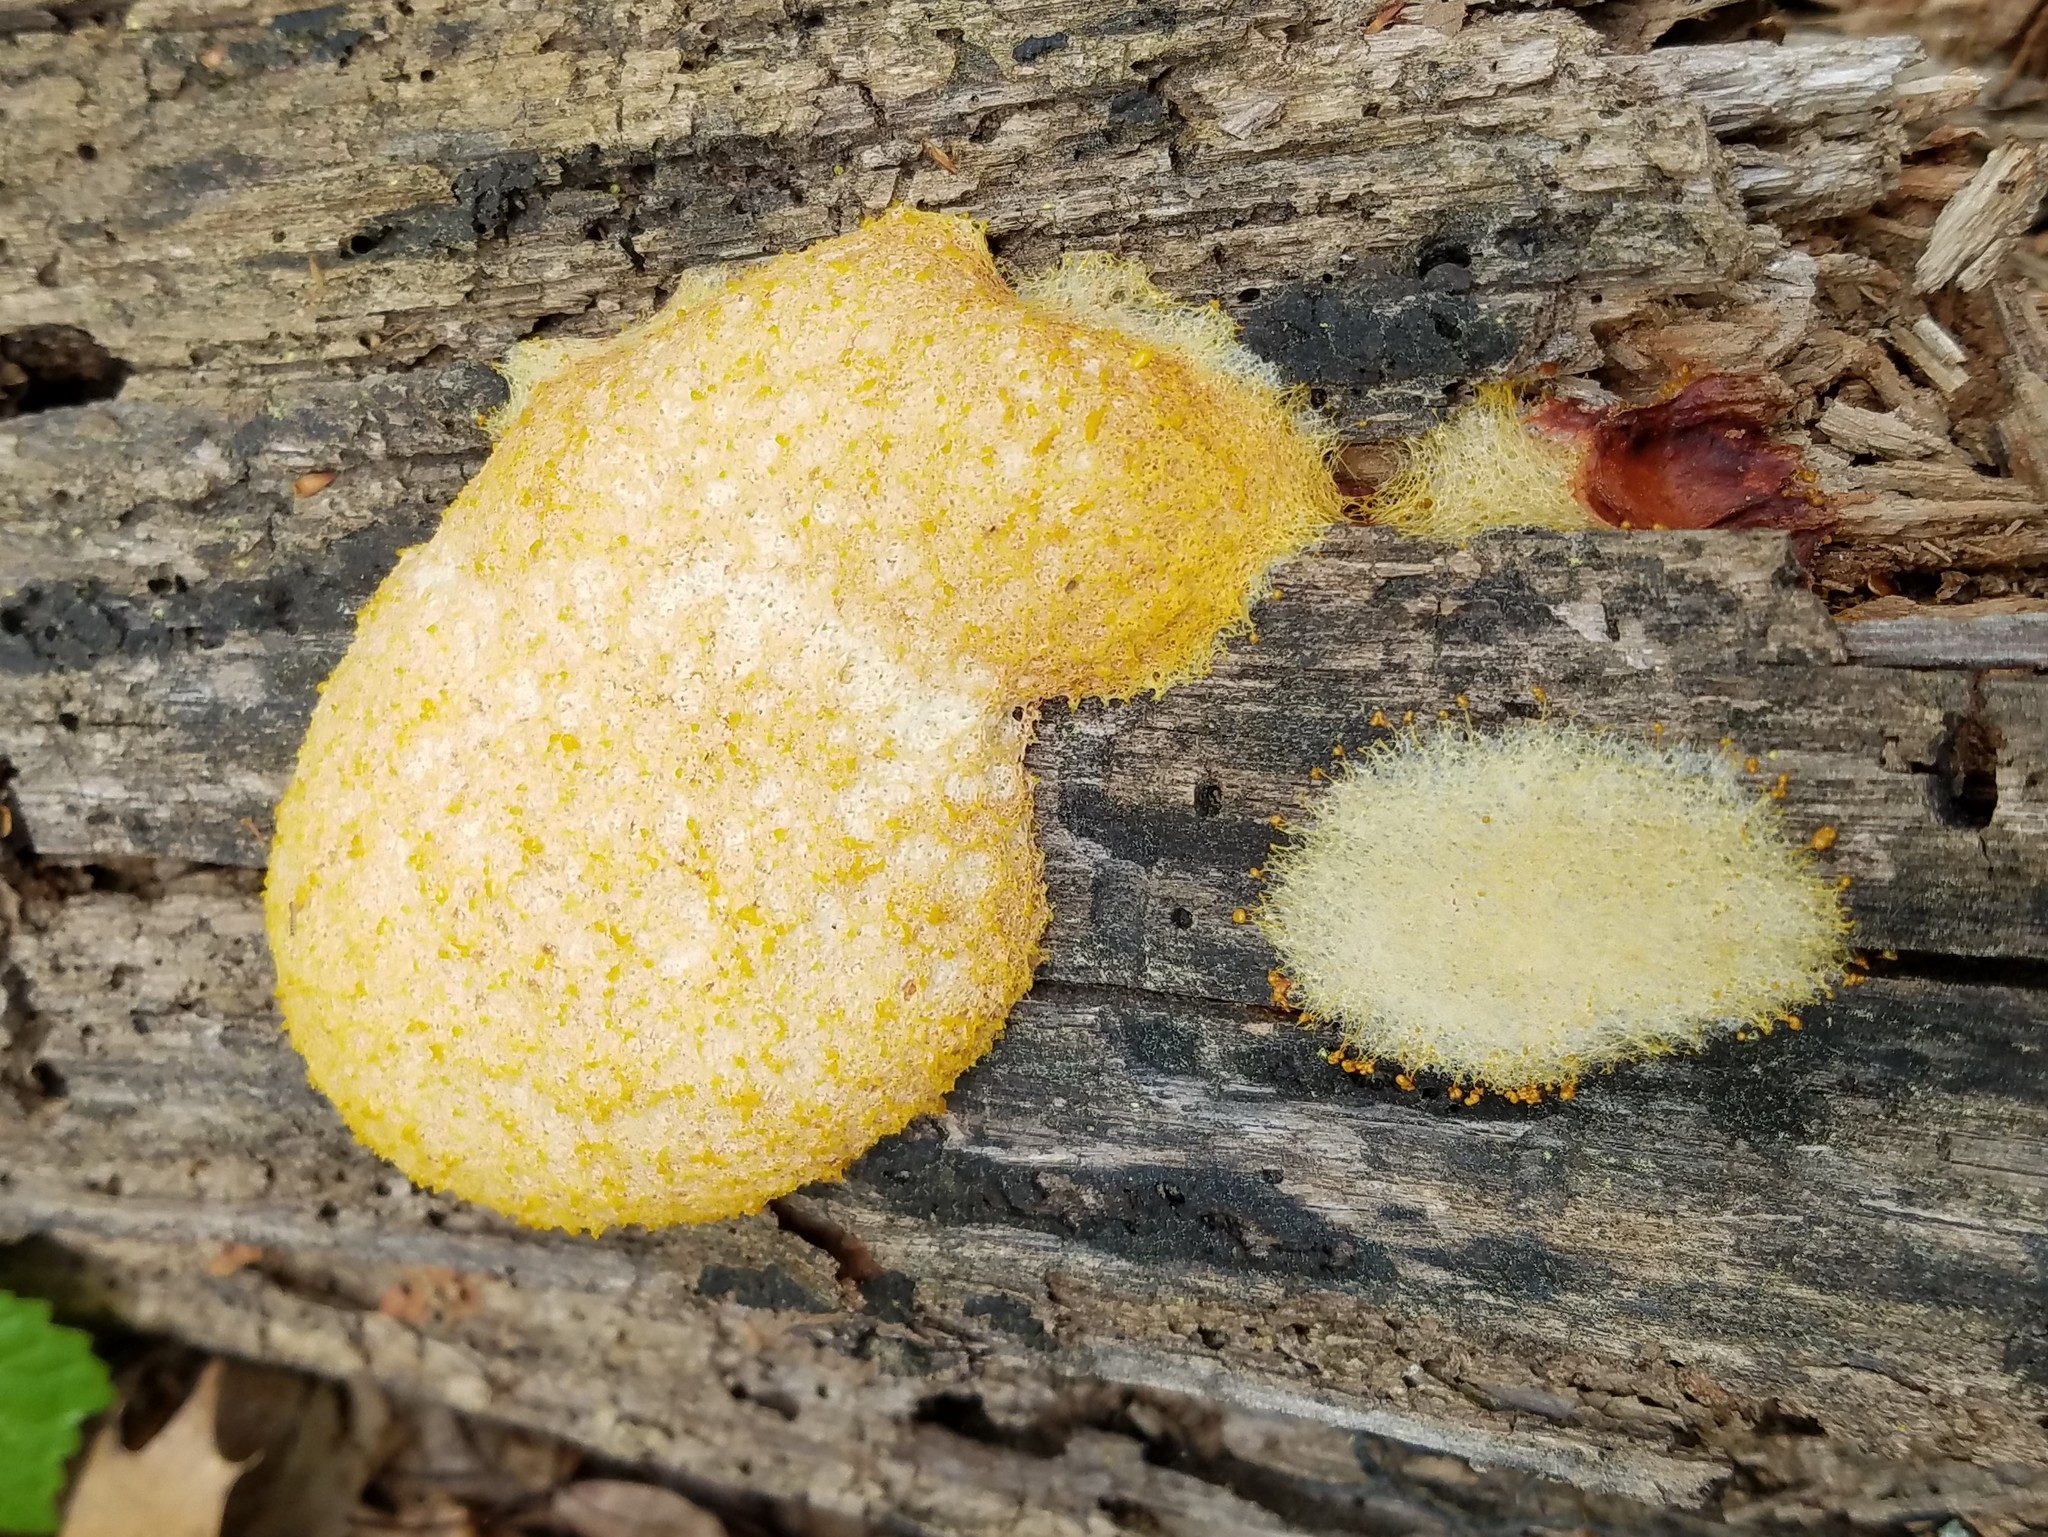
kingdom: Protozoa
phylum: Mycetozoa
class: Myxomycetes
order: Physarales
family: Physaraceae
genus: Fuligo
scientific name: Fuligo septica
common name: Dog vomit slime mold
